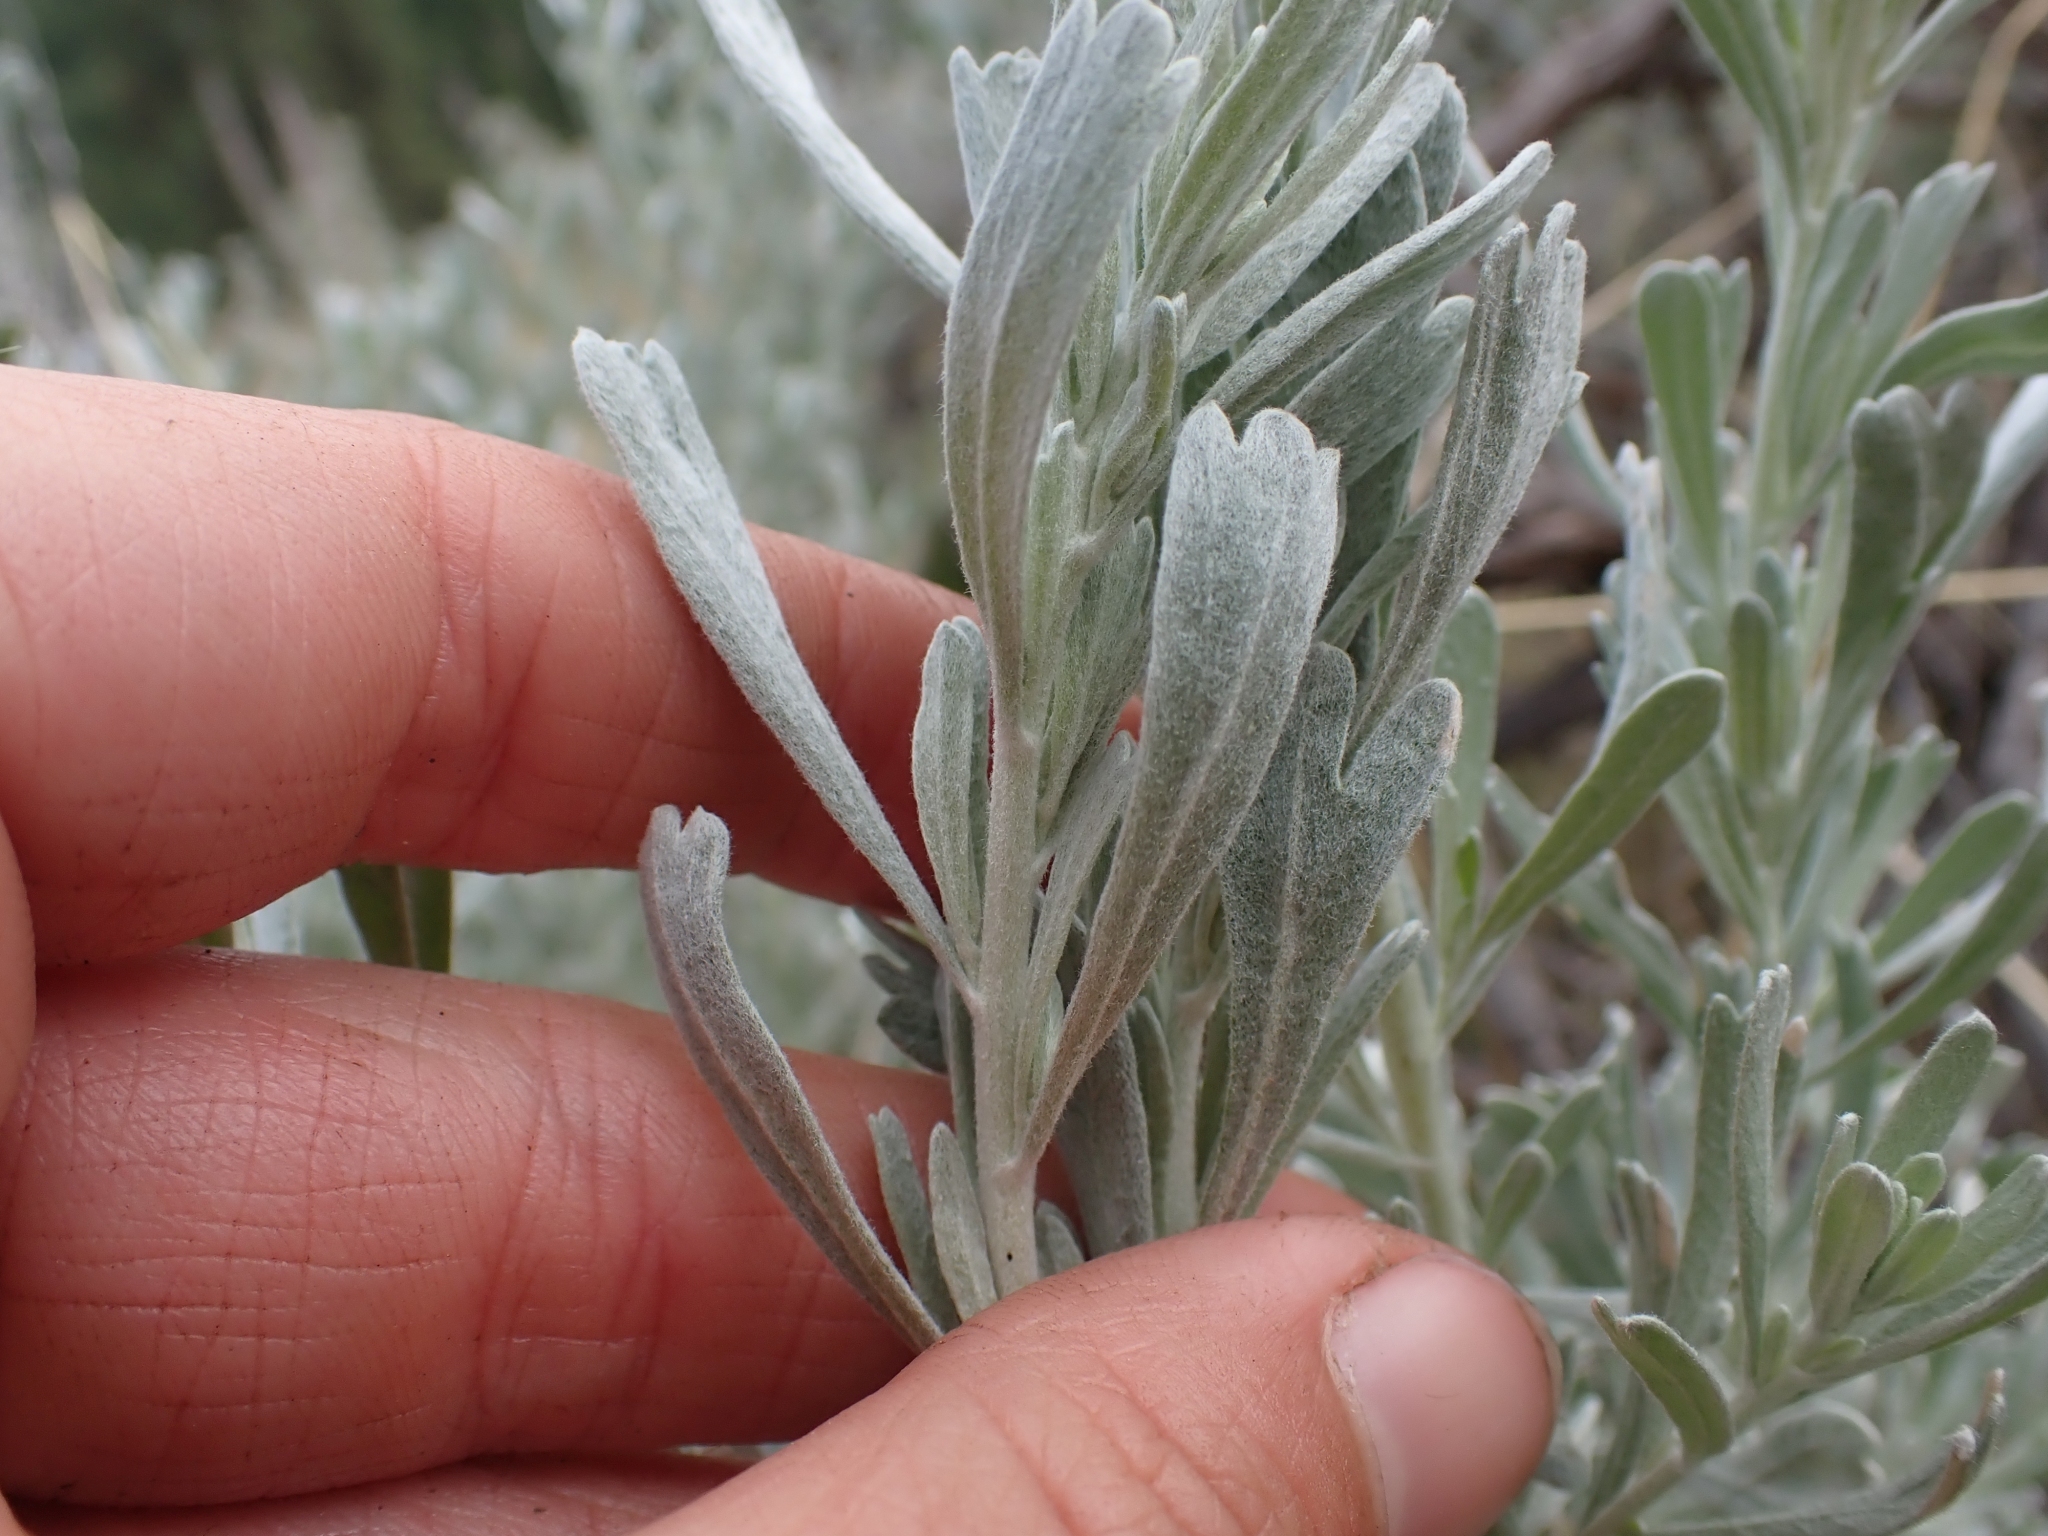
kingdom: Plantae
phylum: Tracheophyta
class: Magnoliopsida
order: Asterales
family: Asteraceae
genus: Artemisia
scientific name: Artemisia tridentata
